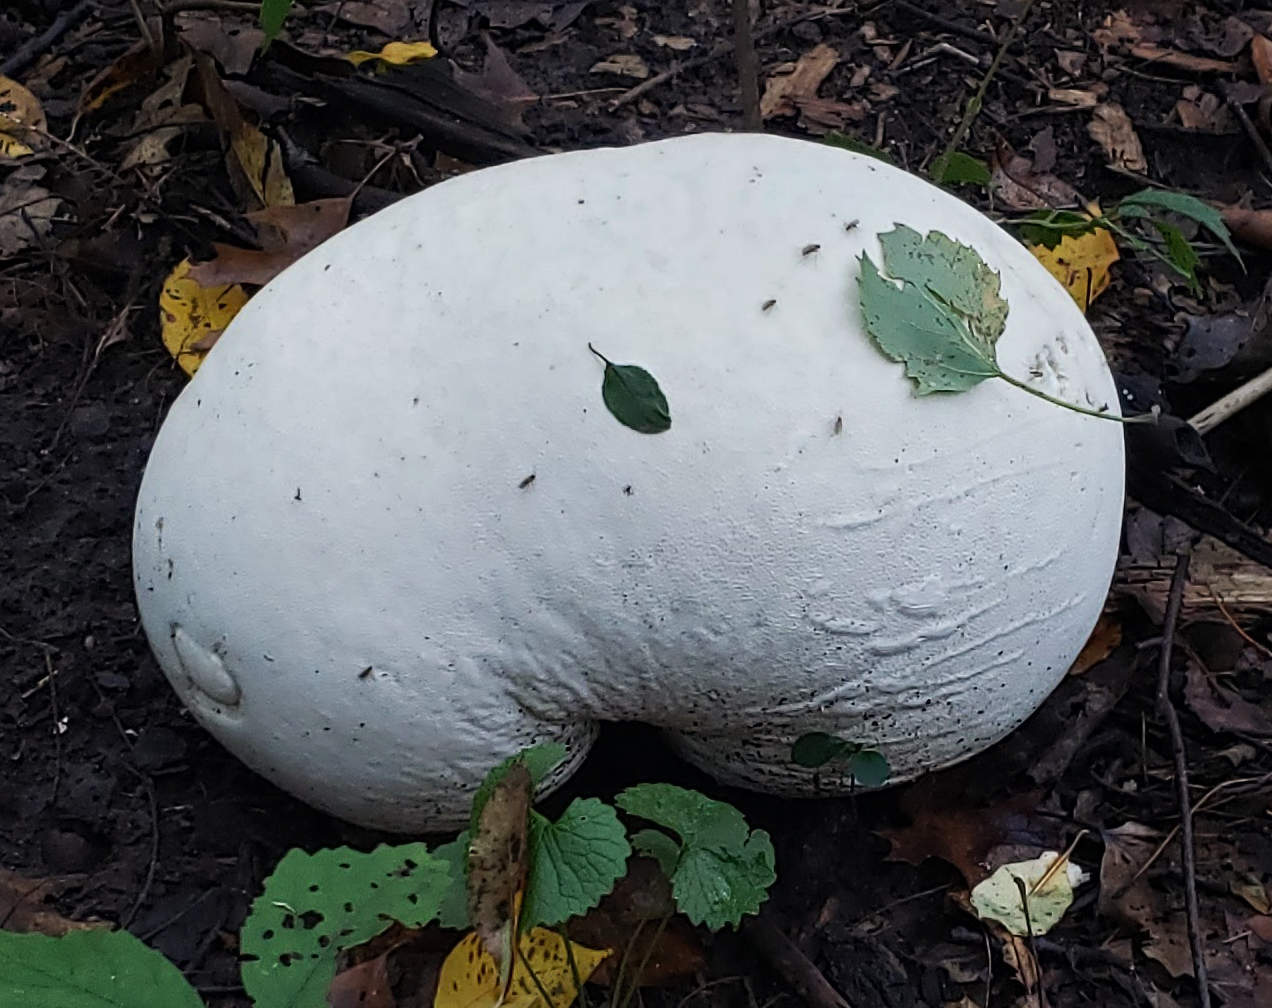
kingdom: Fungi
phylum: Basidiomycota
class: Agaricomycetes
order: Agaricales
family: Lycoperdaceae
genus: Calvatia
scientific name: Calvatia gigantea
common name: Giant puffball
